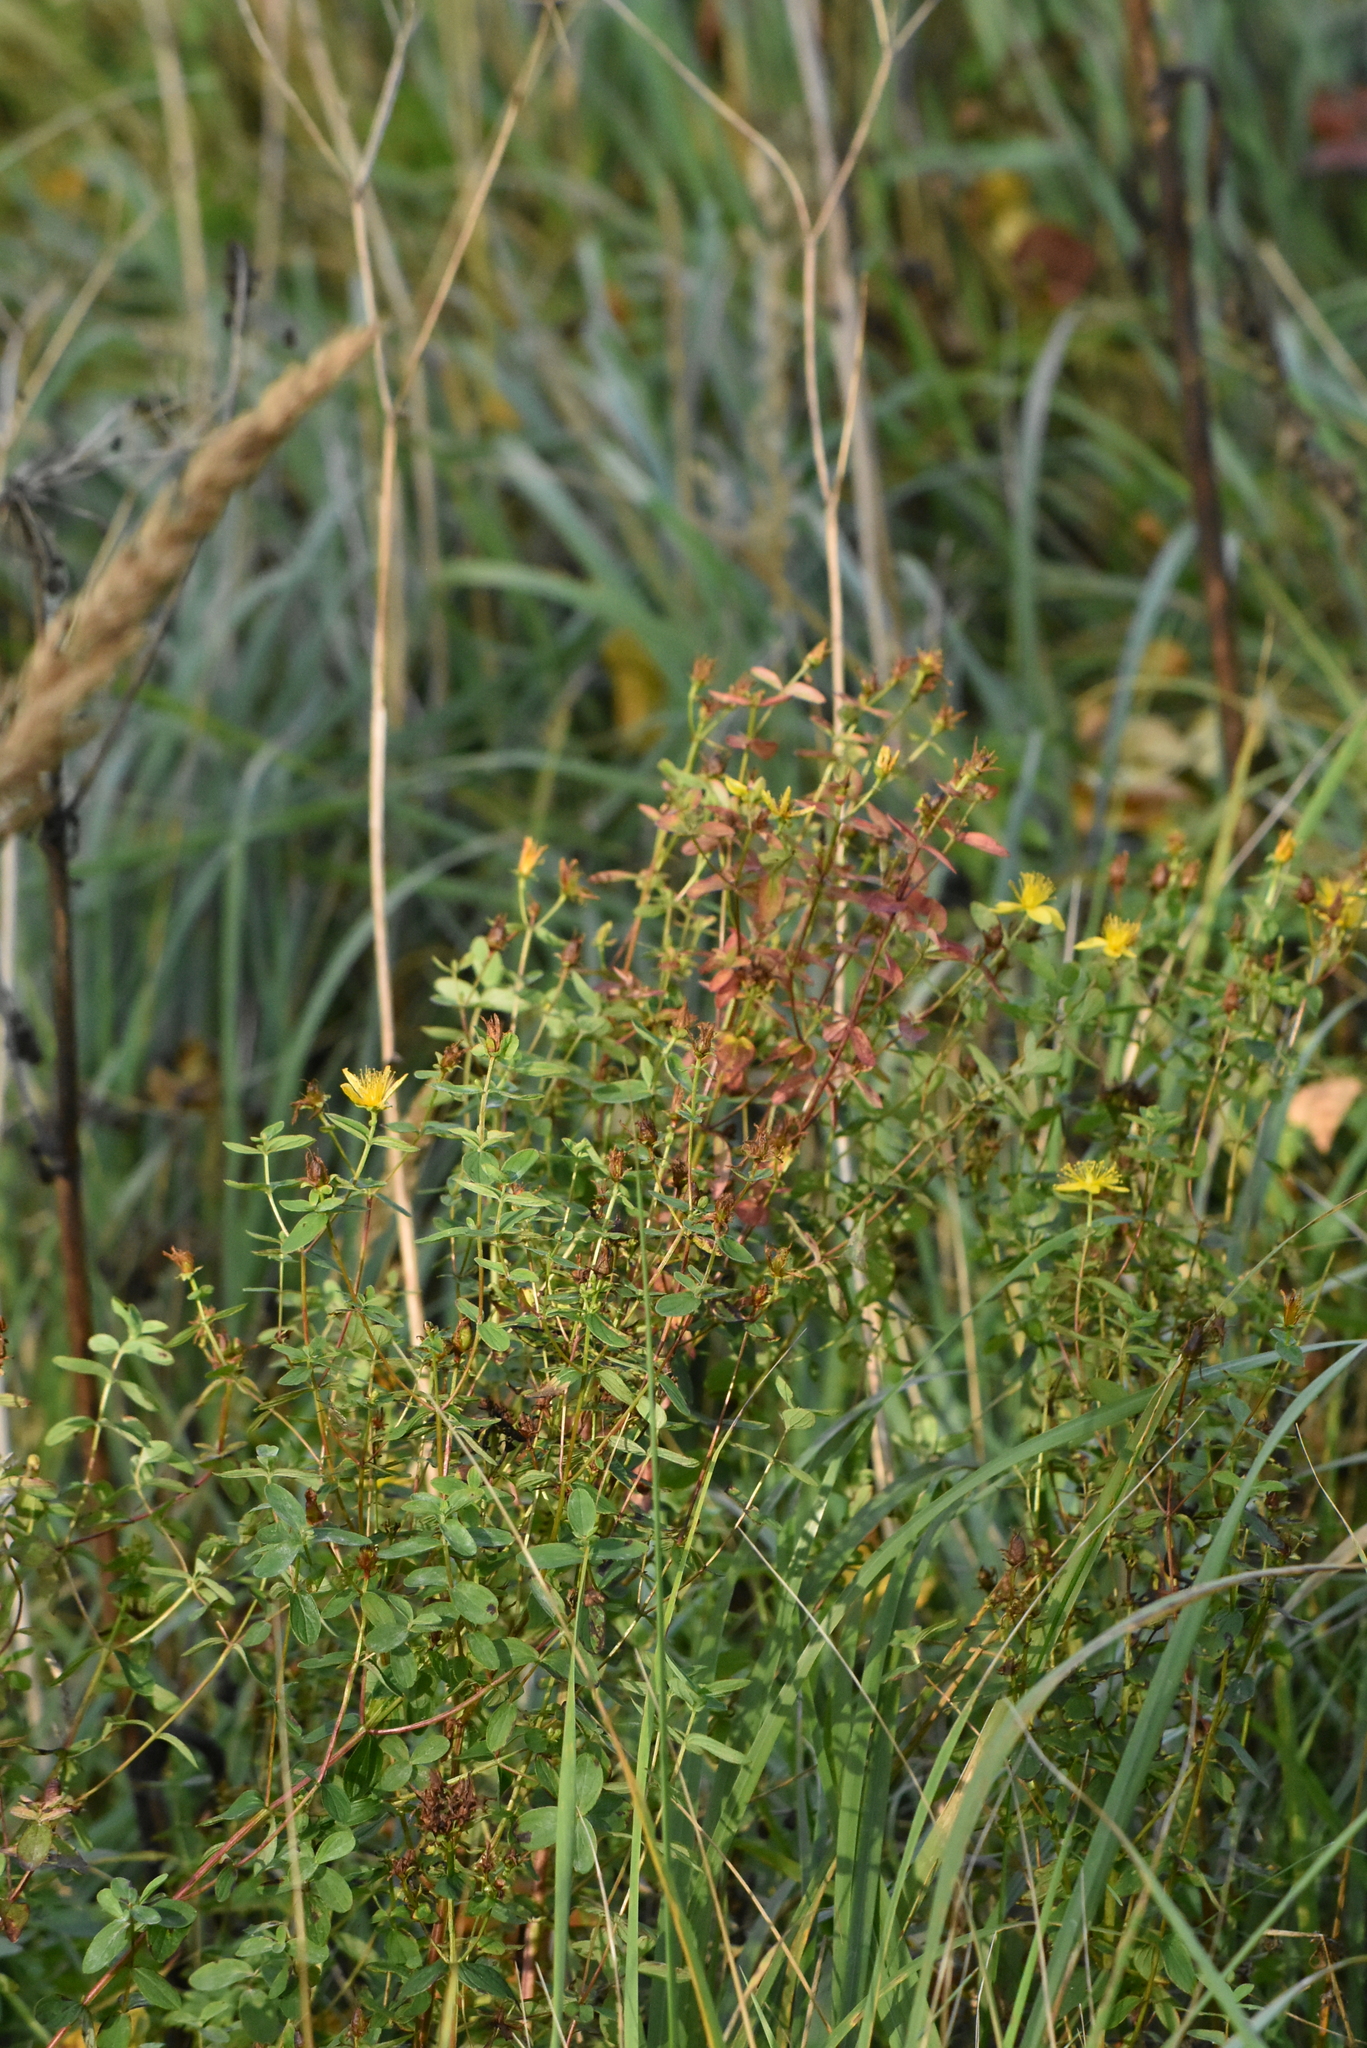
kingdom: Plantae
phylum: Tracheophyta
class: Magnoliopsida
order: Malpighiales
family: Hypericaceae
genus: Hypericum
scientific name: Hypericum maculatum
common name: Imperforate st. john's-wort
